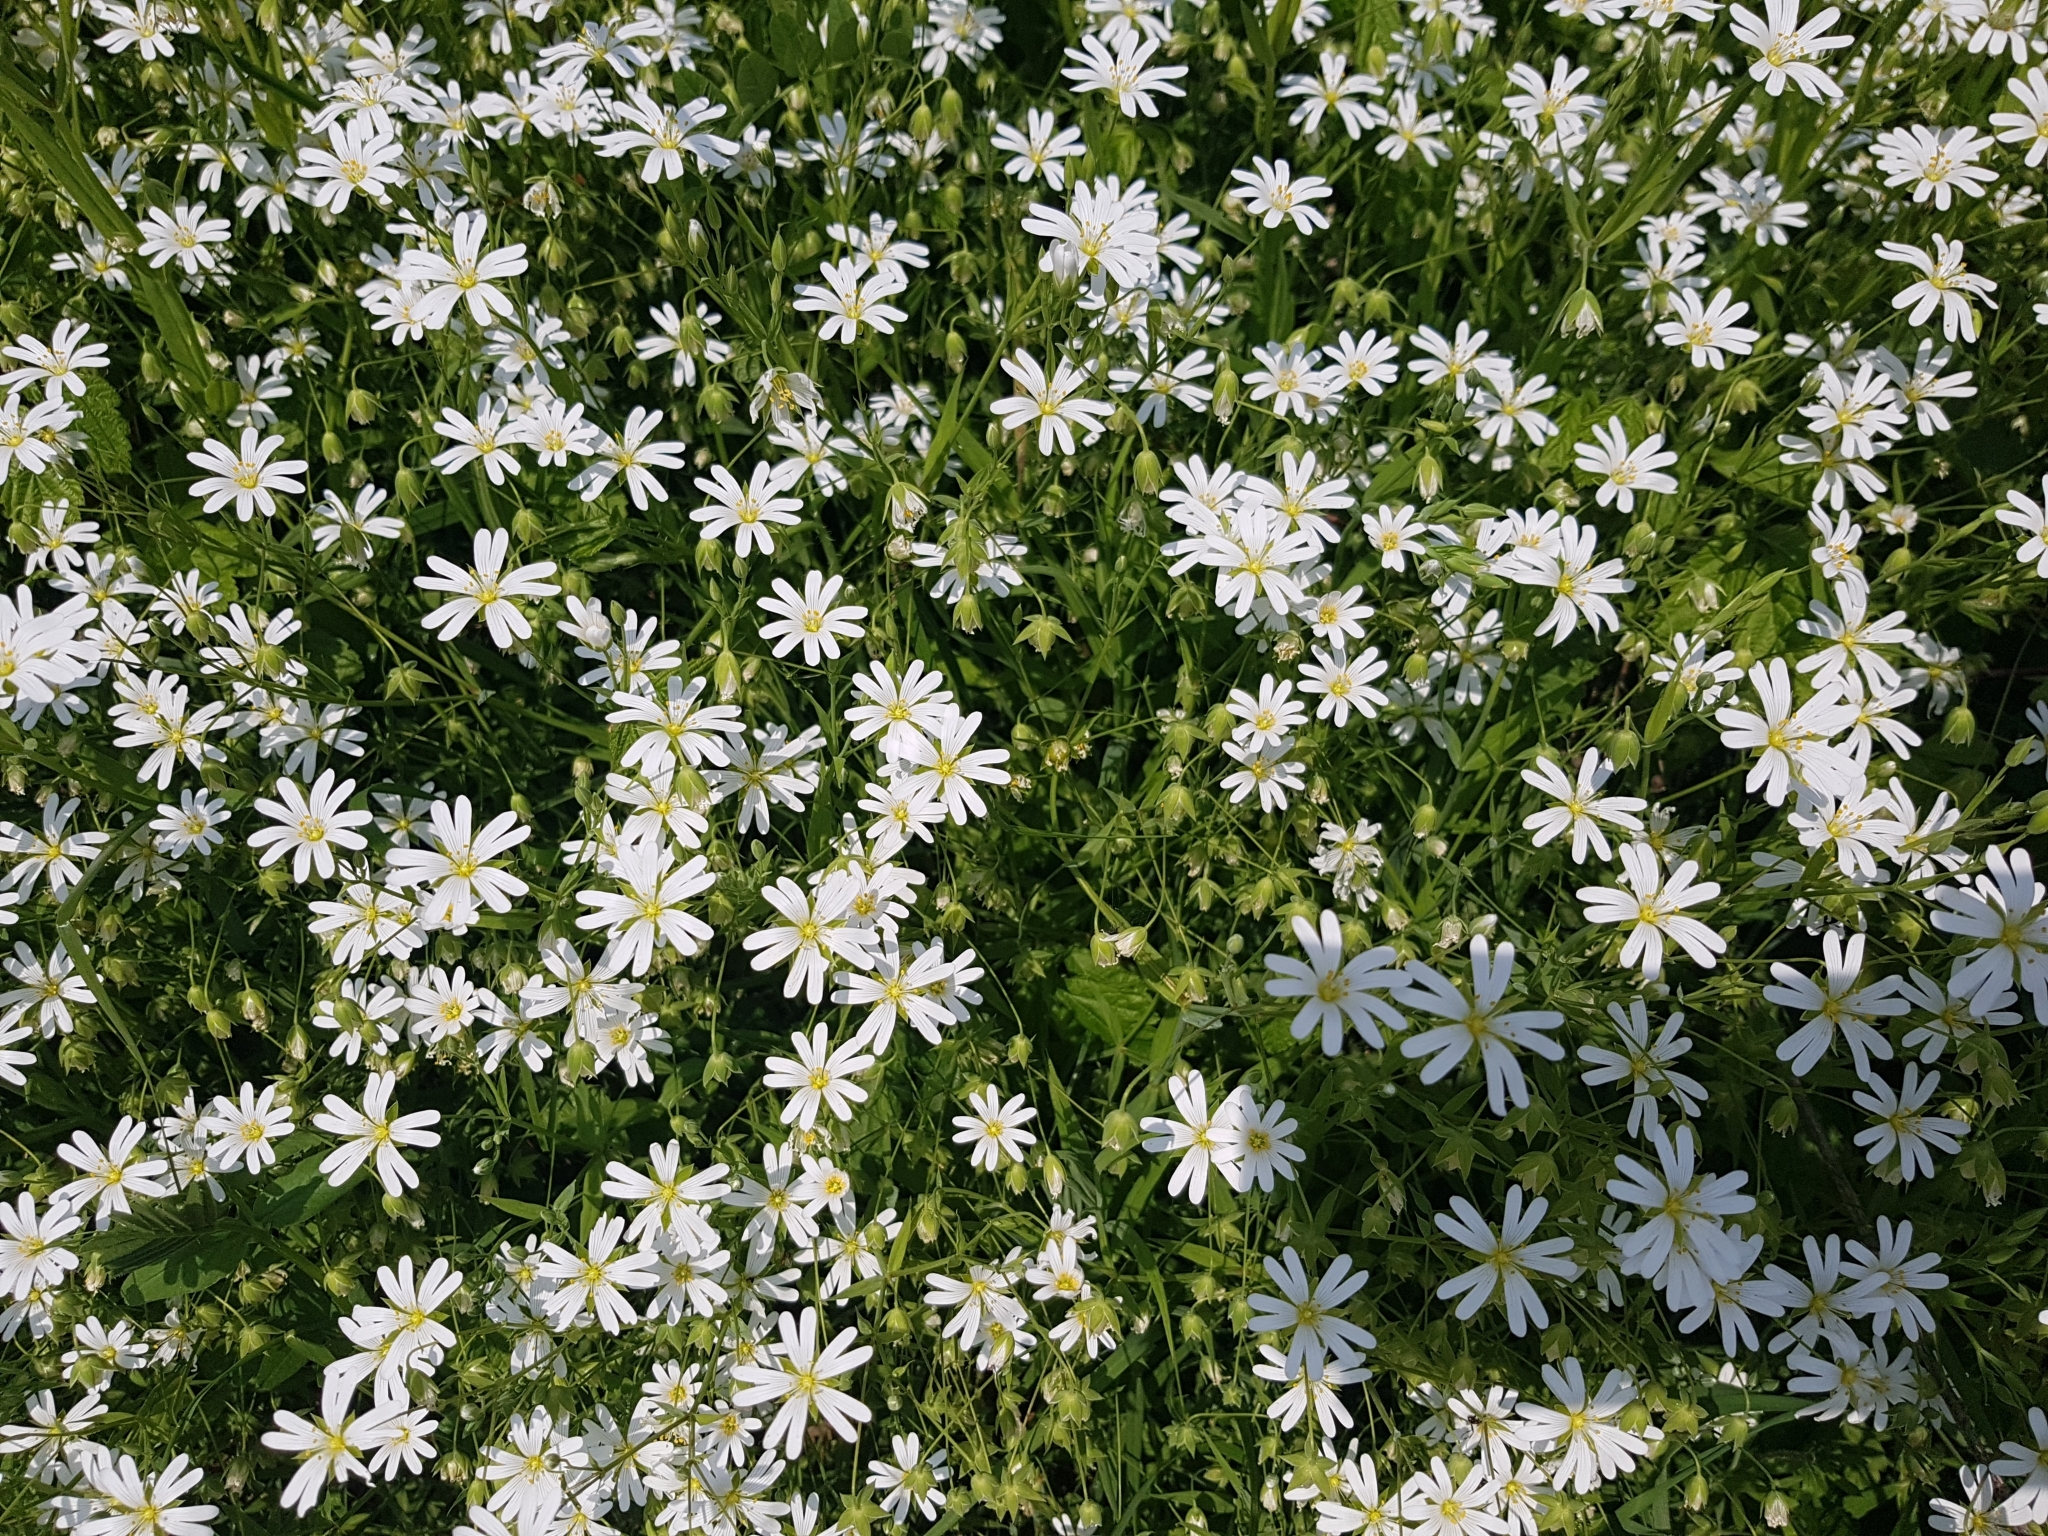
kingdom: Plantae
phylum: Tracheophyta
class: Magnoliopsida
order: Caryophyllales
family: Caryophyllaceae
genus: Rabelera
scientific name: Rabelera holostea
